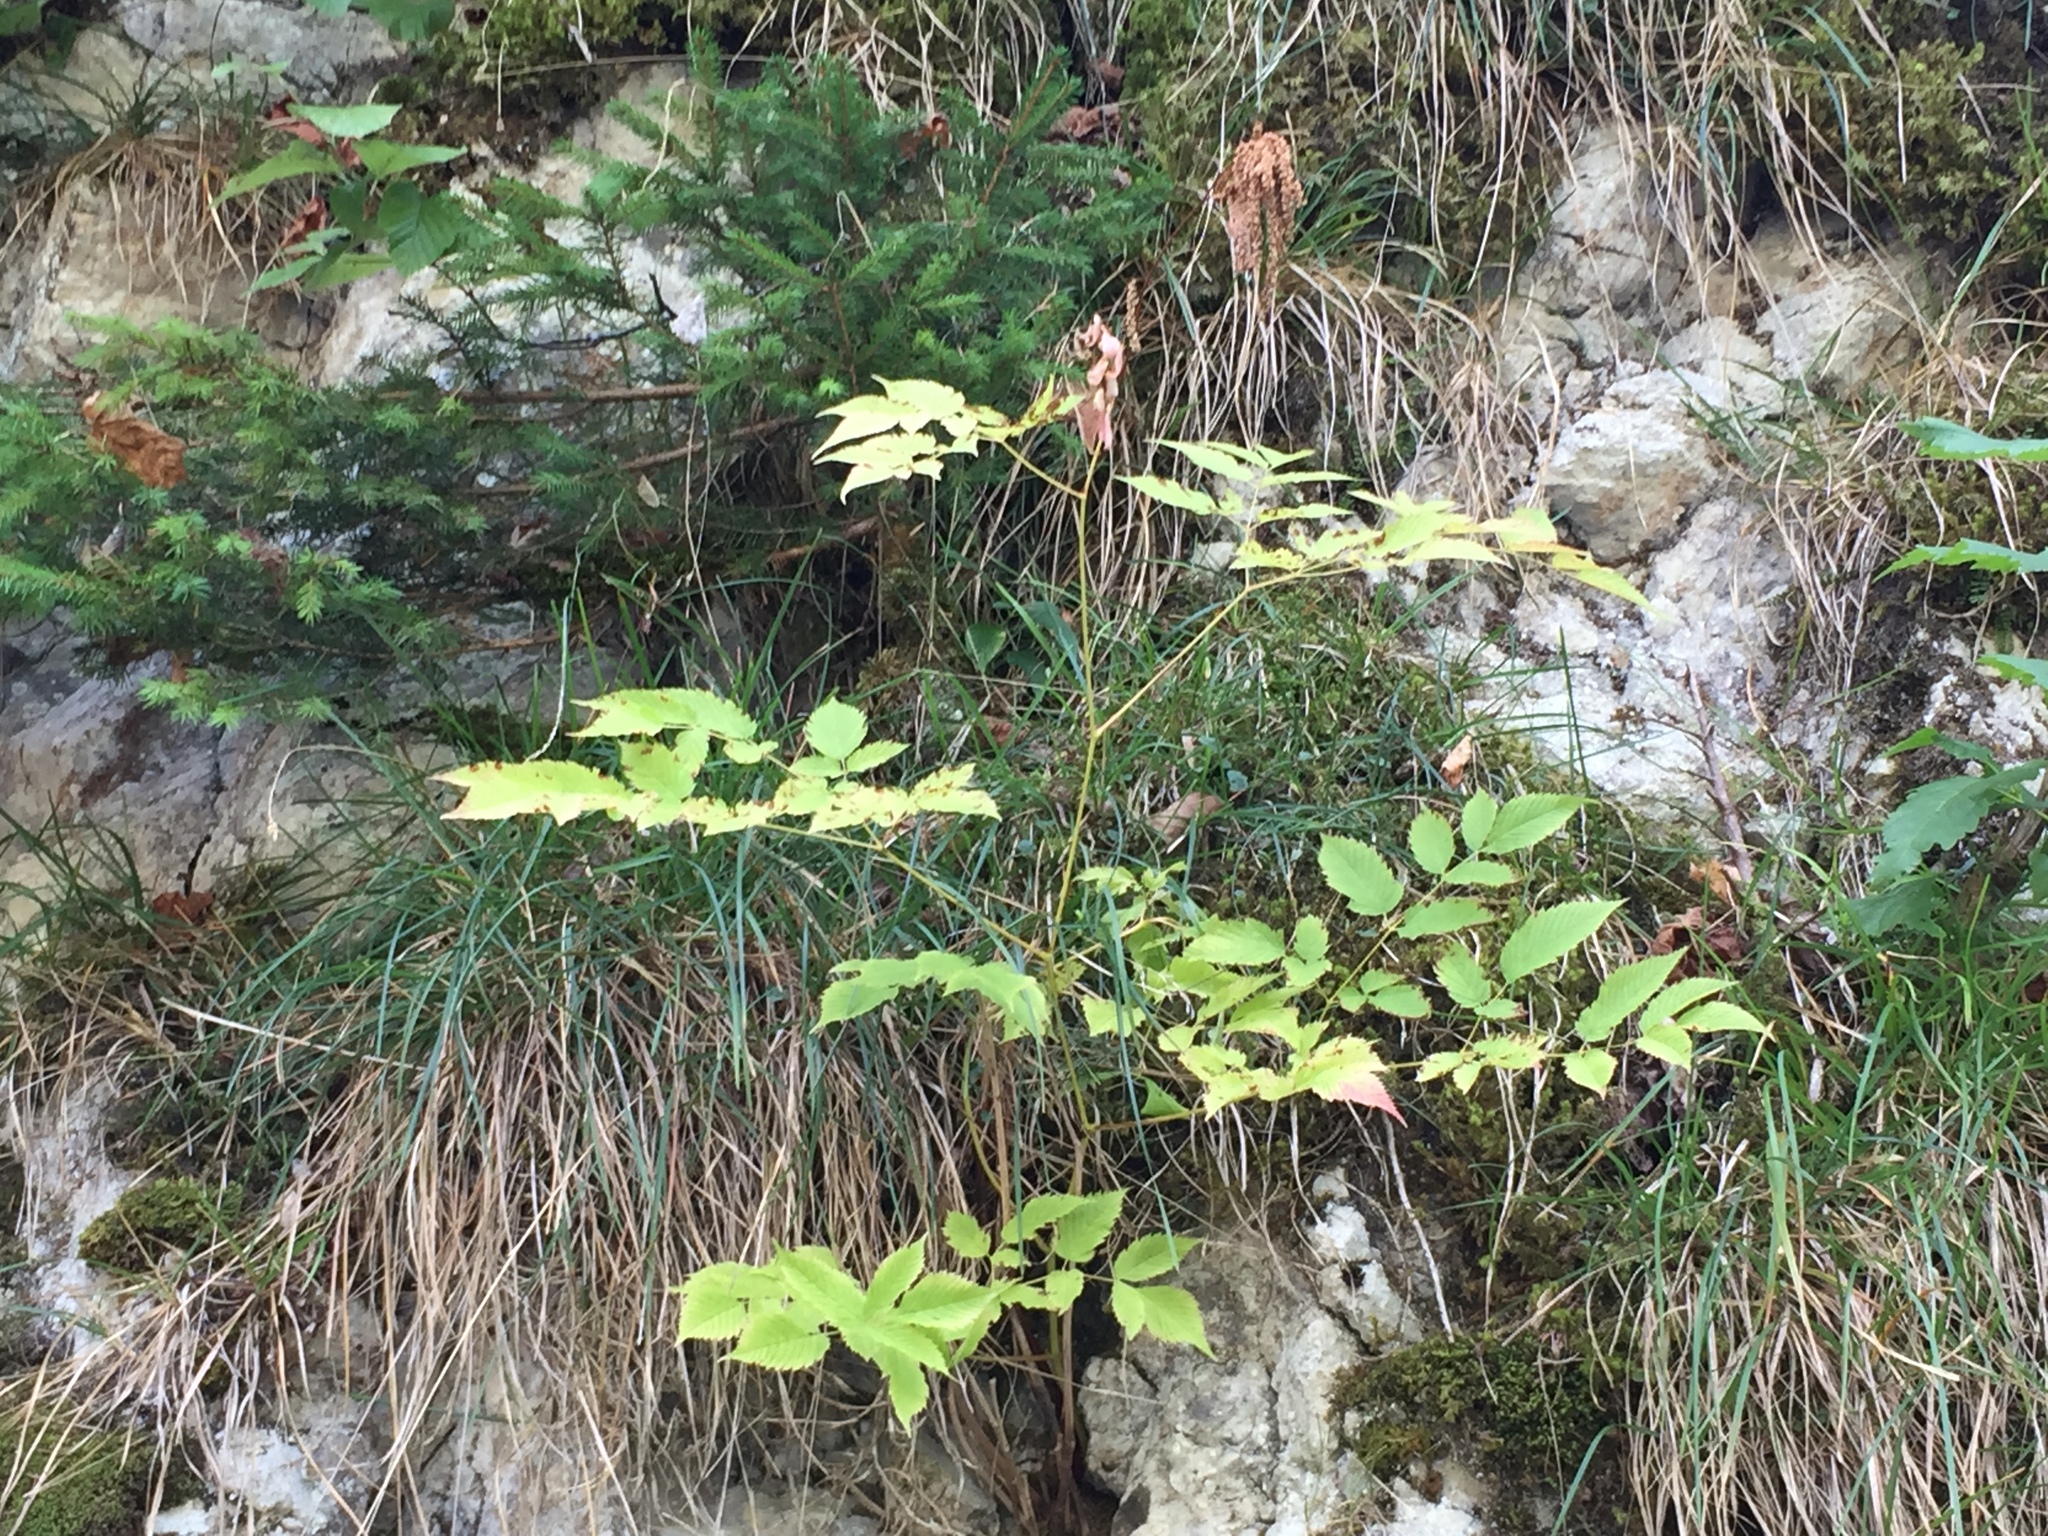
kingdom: Plantae
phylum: Tracheophyta
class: Magnoliopsida
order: Rosales
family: Rosaceae
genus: Aruncus
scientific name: Aruncus dioicus
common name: Buck's-beard
